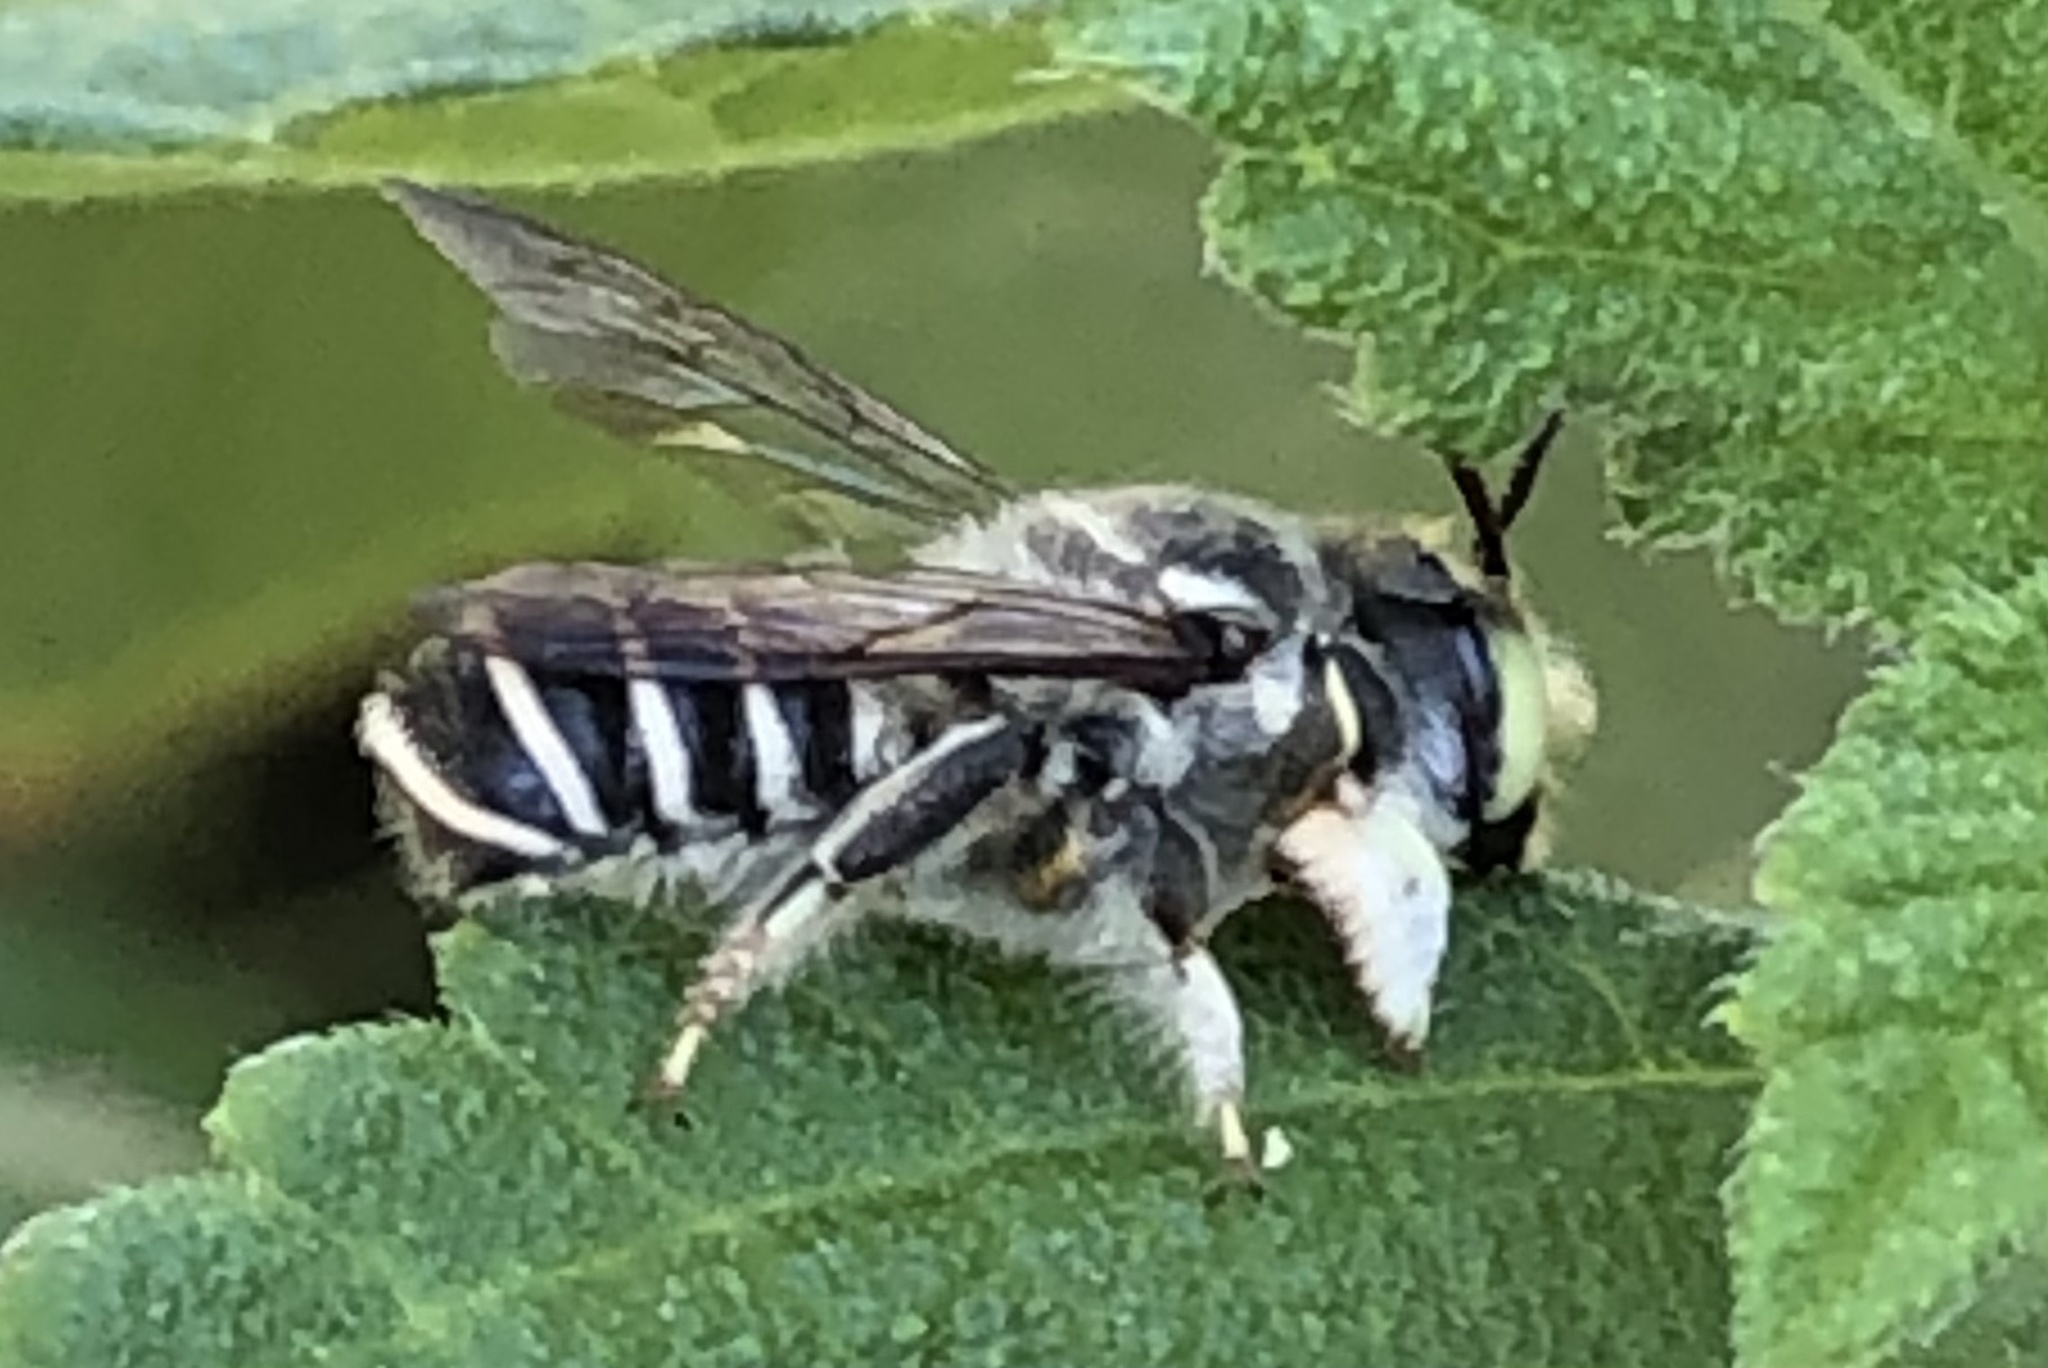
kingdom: Animalia
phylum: Arthropoda
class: Insecta
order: Hymenoptera
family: Megachilidae
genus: Megachile
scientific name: Megachile sidalceae
